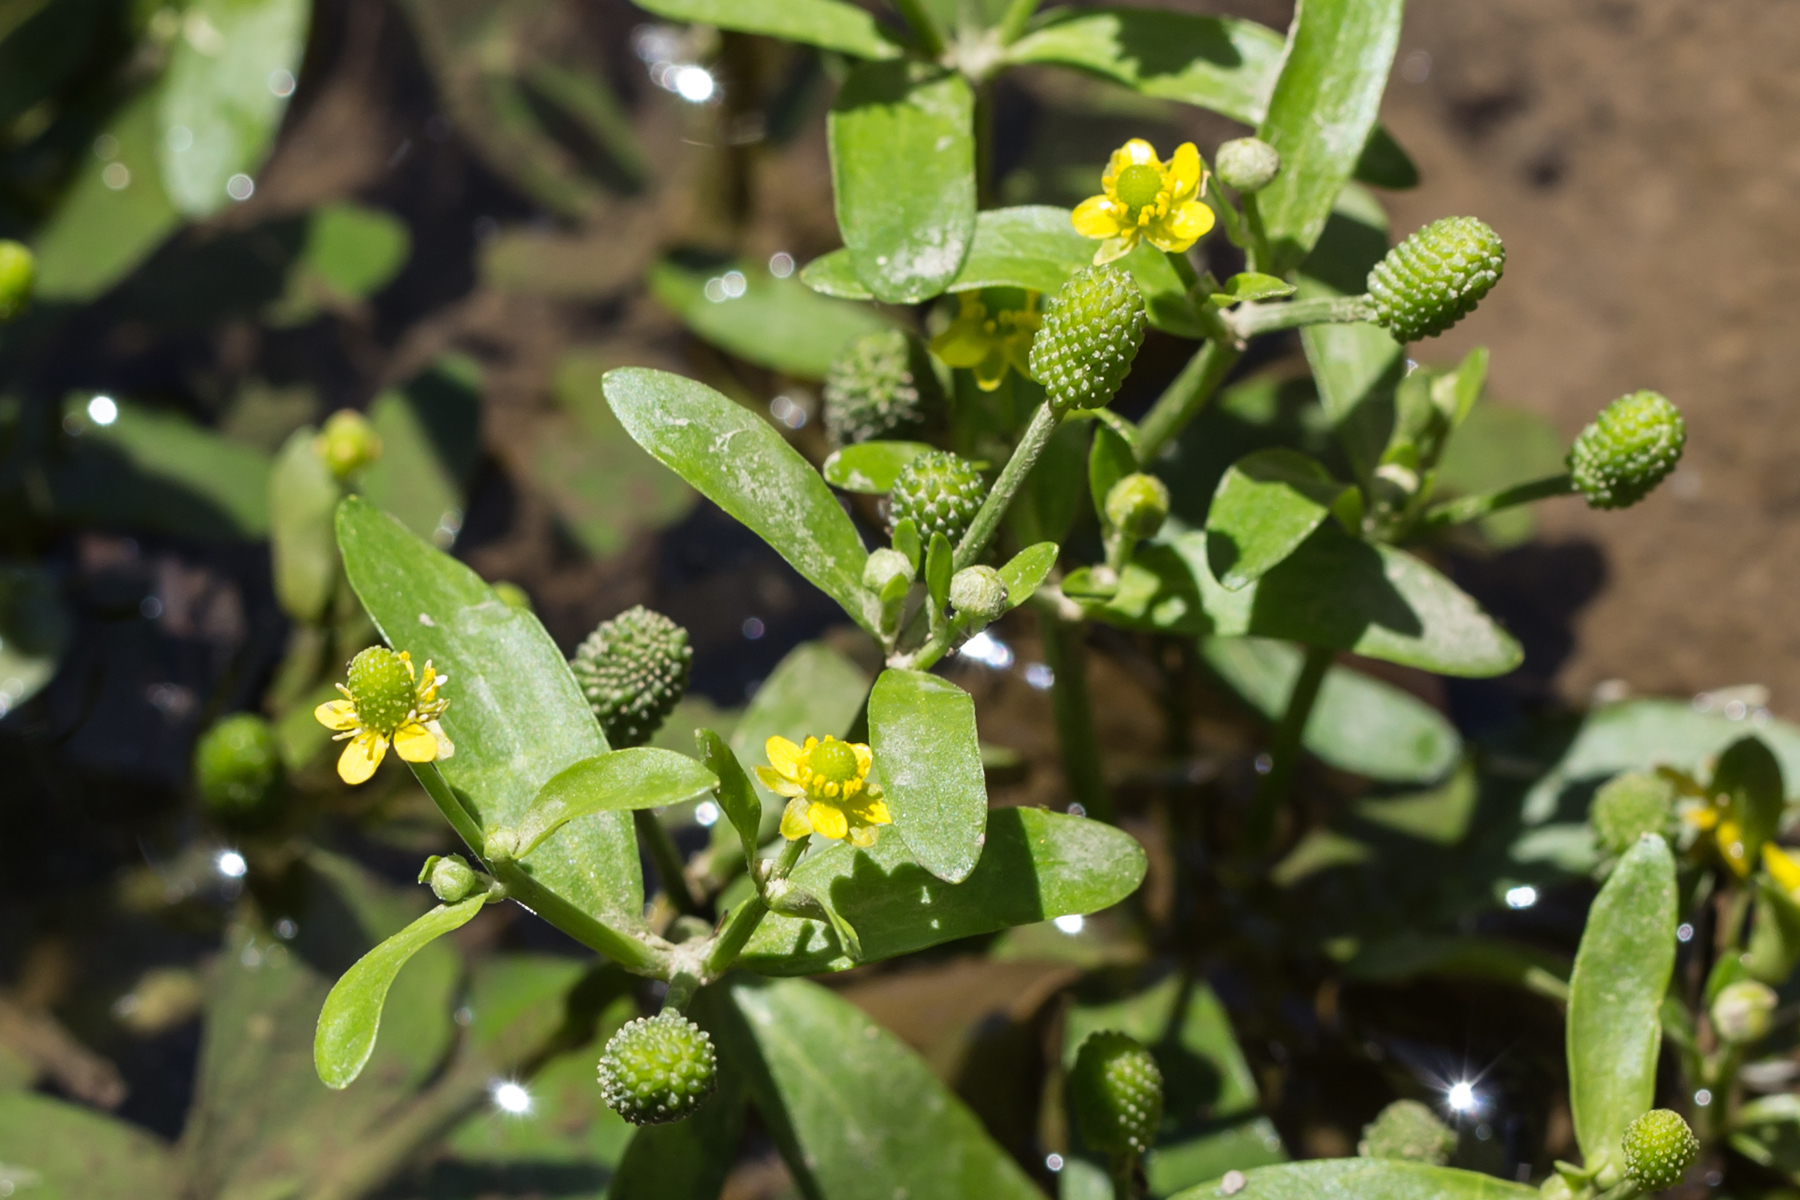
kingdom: Plantae
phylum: Tracheophyta
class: Magnoliopsida
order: Ranunculales
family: Ranunculaceae
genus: Ranunculus
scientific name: Ranunculus sceleratus
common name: Celery-leaved buttercup
